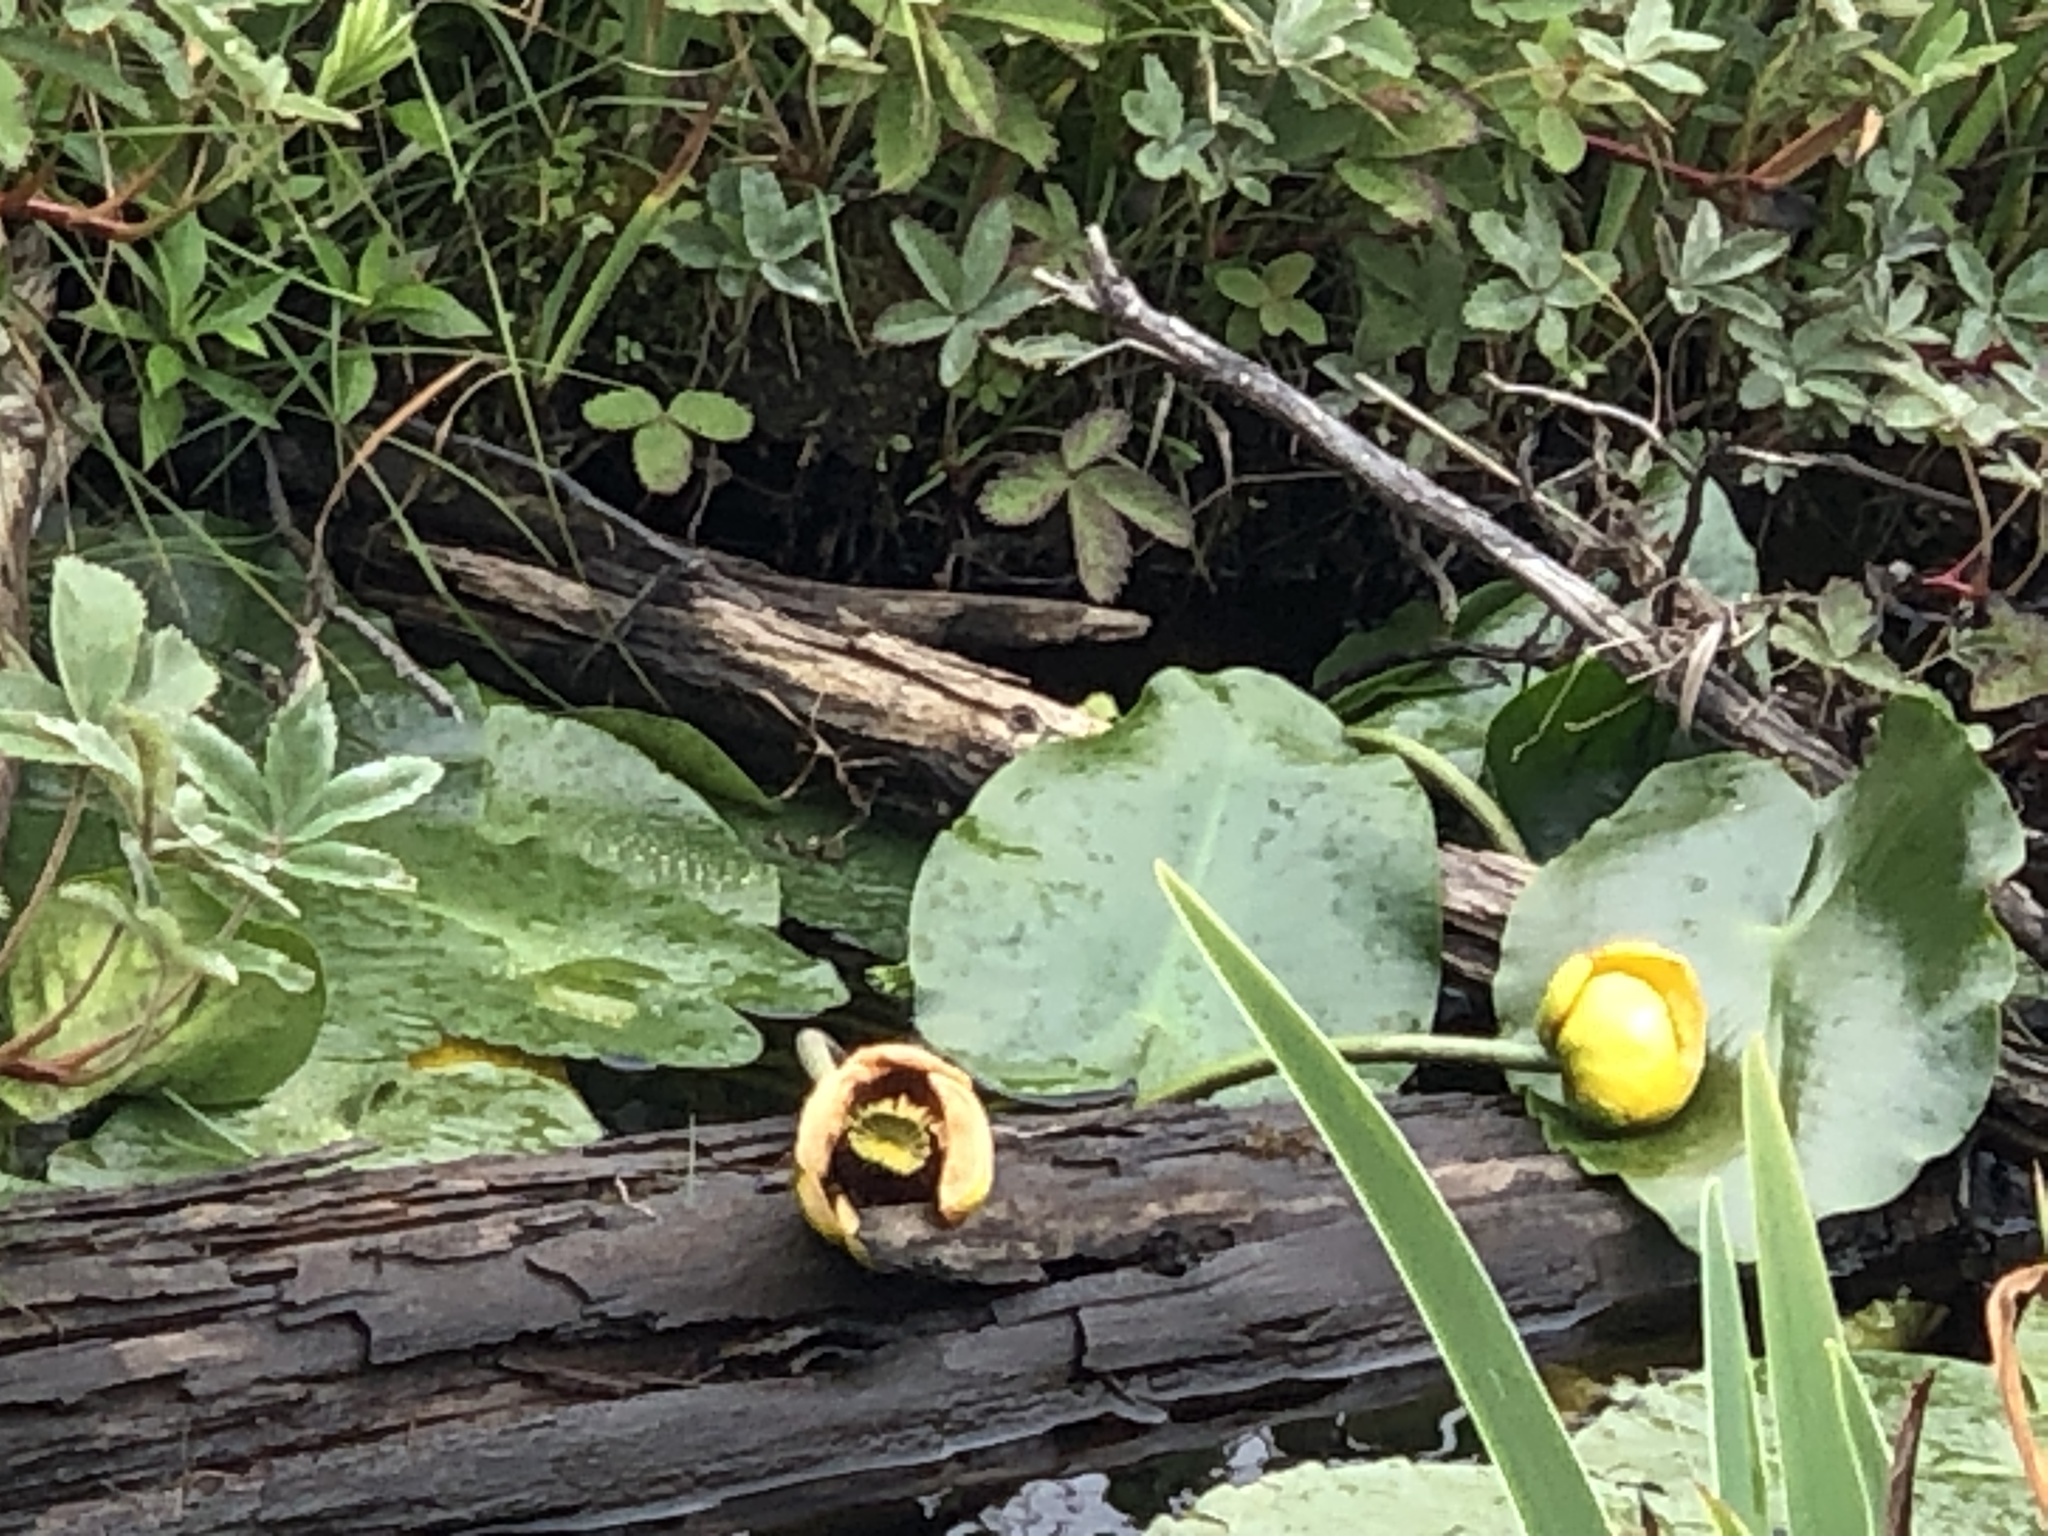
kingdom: Plantae
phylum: Tracheophyta
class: Magnoliopsida
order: Nymphaeales
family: Nymphaeaceae
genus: Nuphar
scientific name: Nuphar variegata
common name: Beaver-root
